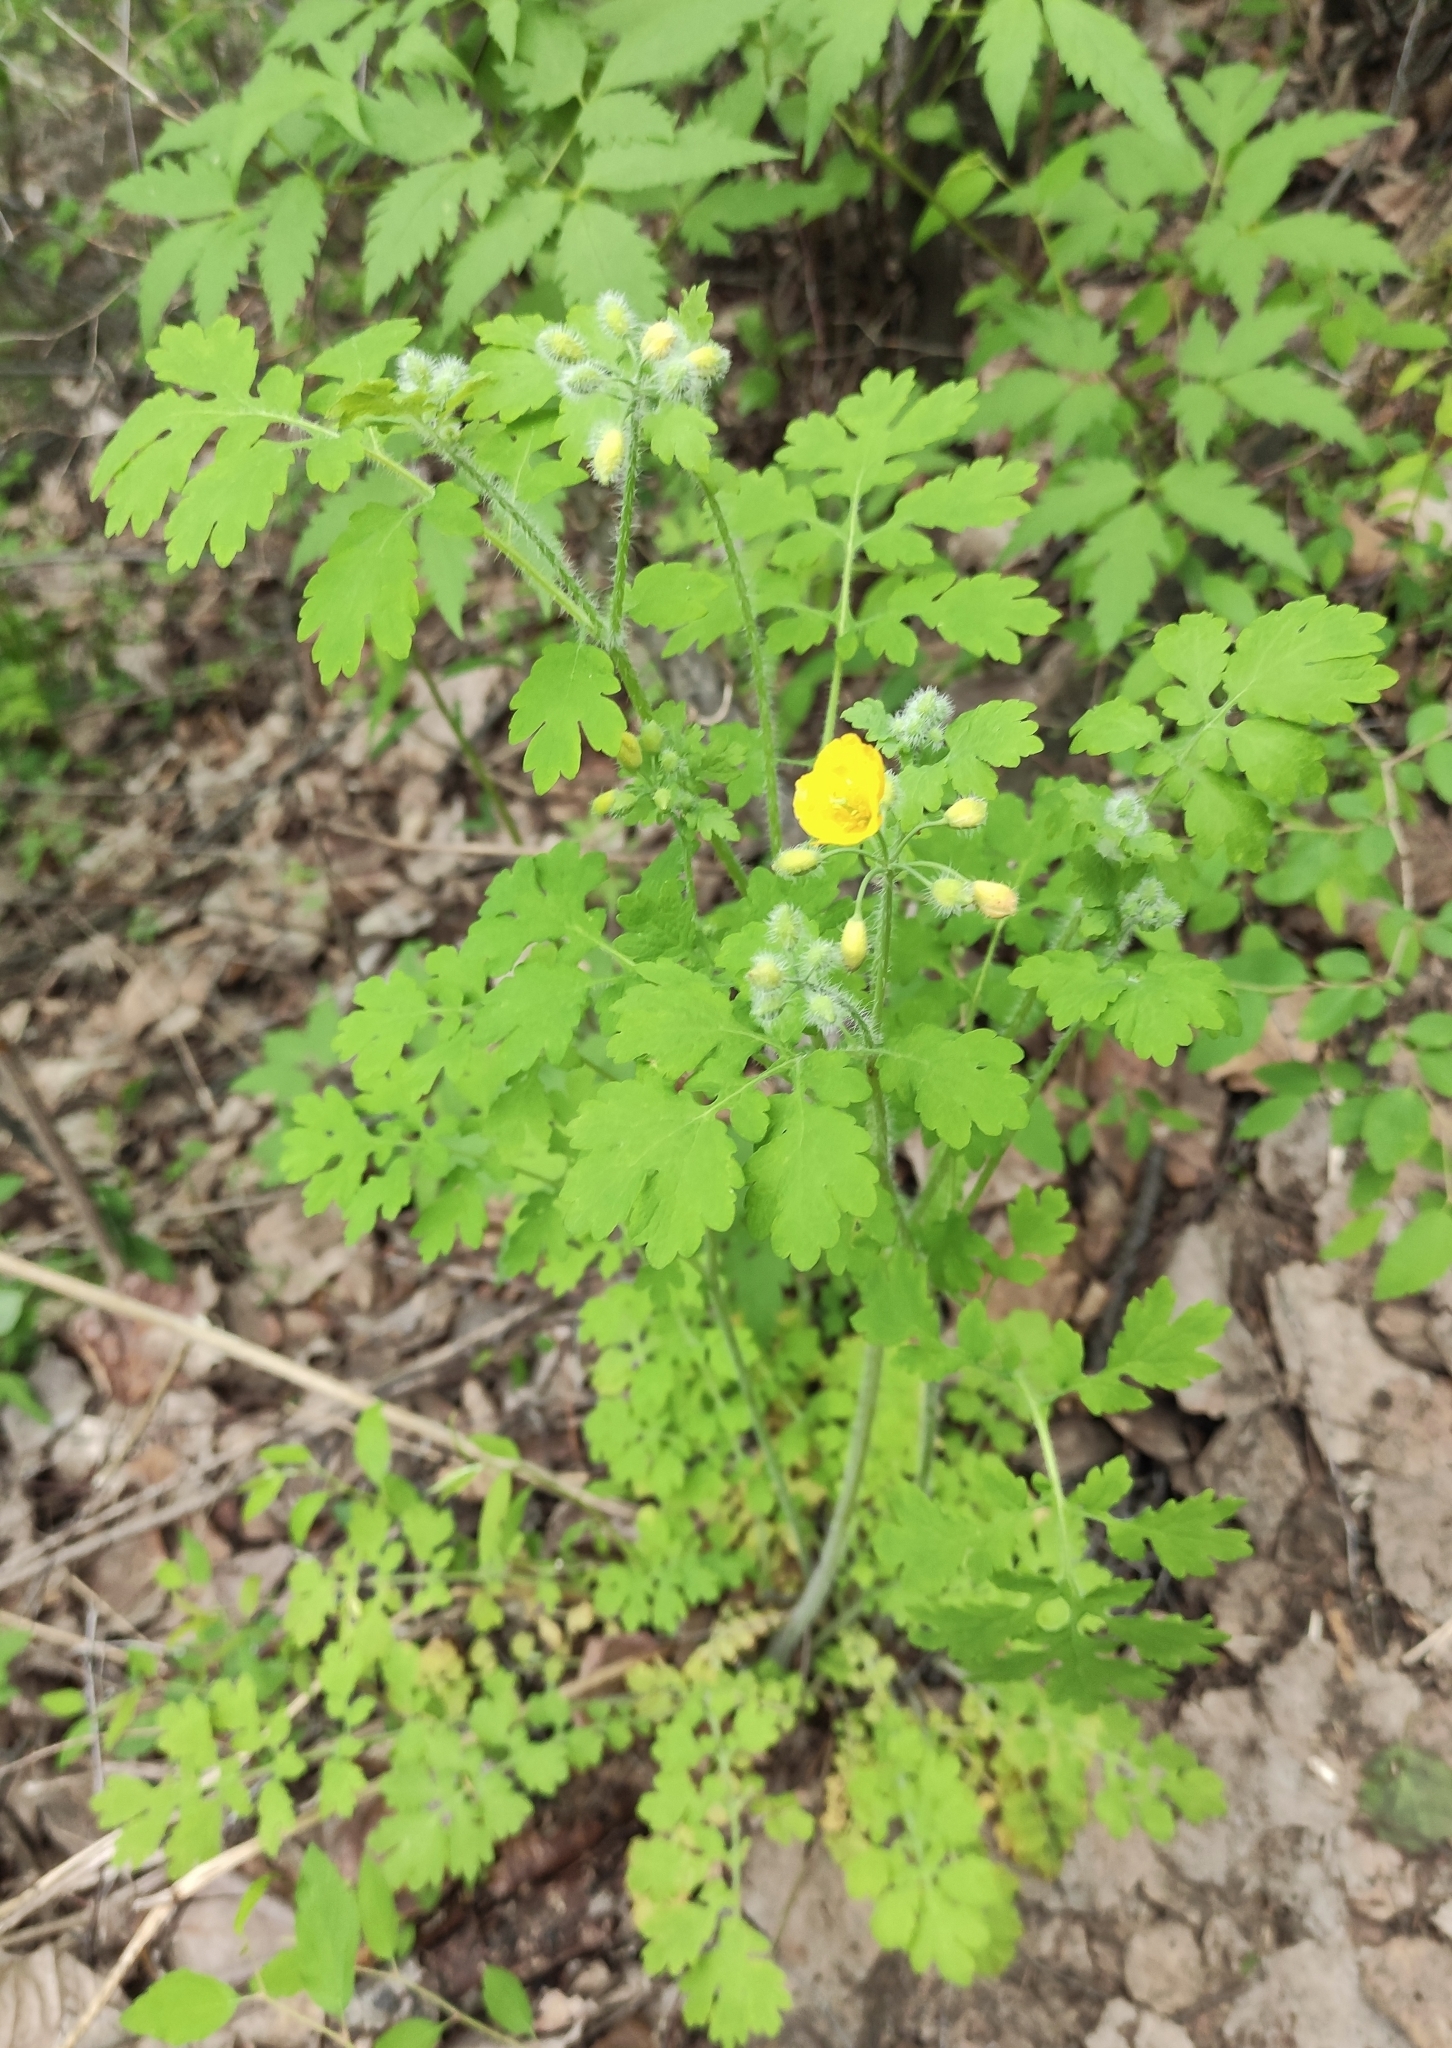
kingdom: Plantae
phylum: Tracheophyta
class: Magnoliopsida
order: Ranunculales
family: Papaveraceae
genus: Chelidonium
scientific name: Chelidonium majus
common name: Greater celandine
